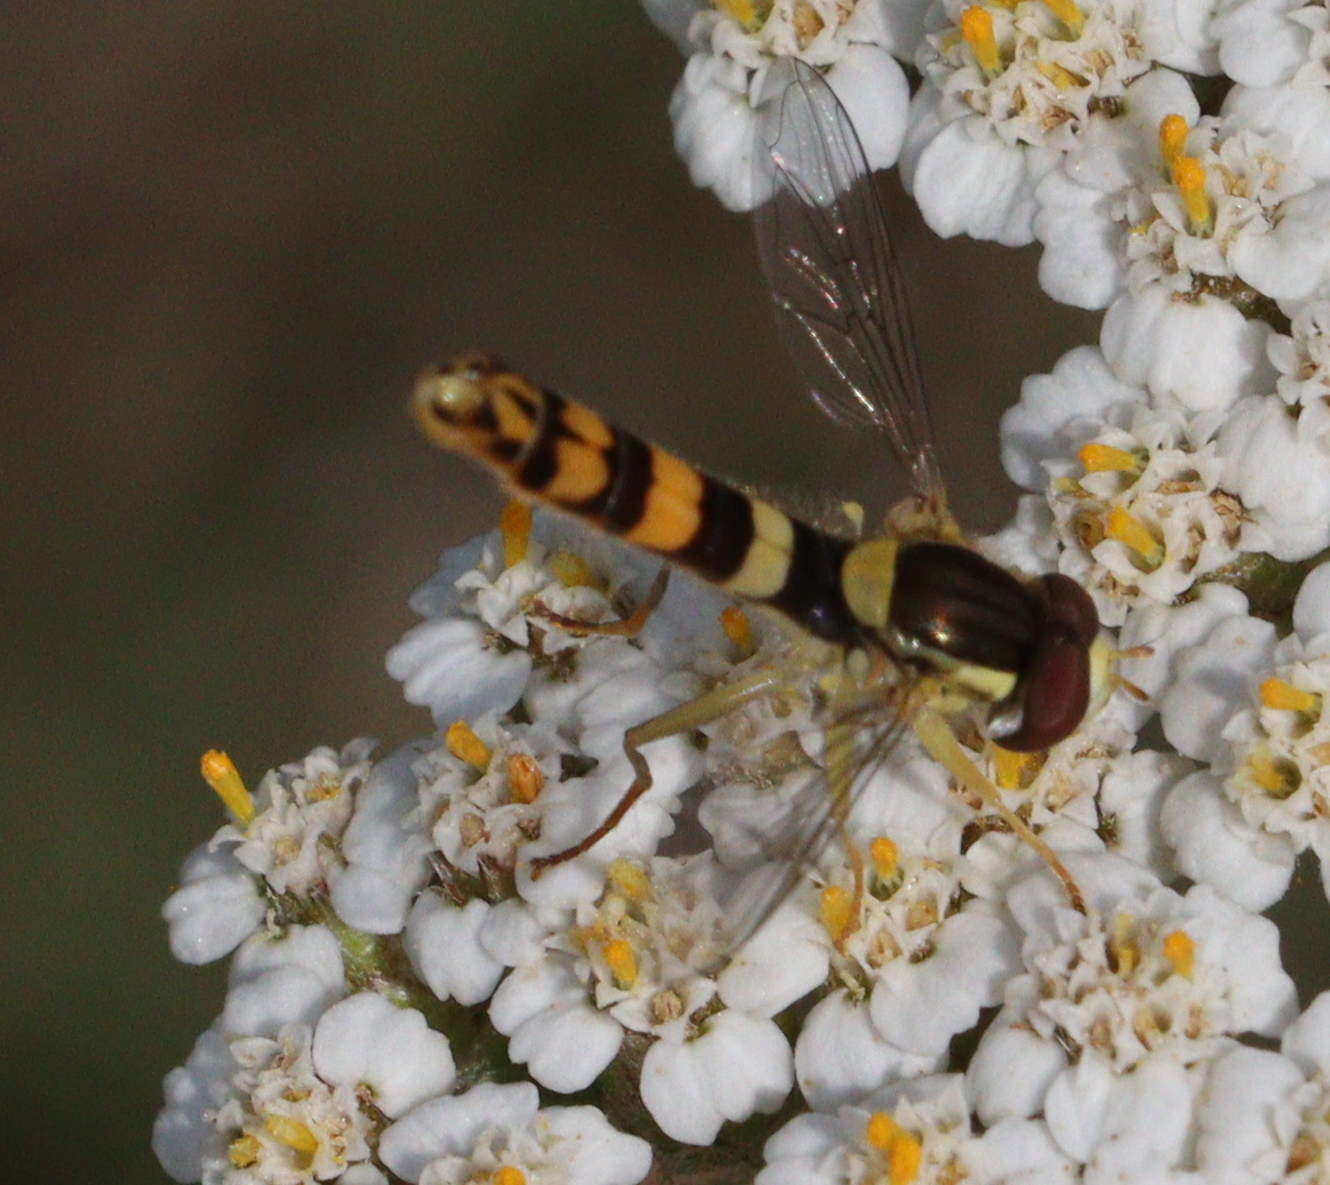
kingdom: Animalia
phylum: Arthropoda
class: Insecta
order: Diptera
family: Syrphidae
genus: Sphaerophoria
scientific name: Sphaerophoria scripta
